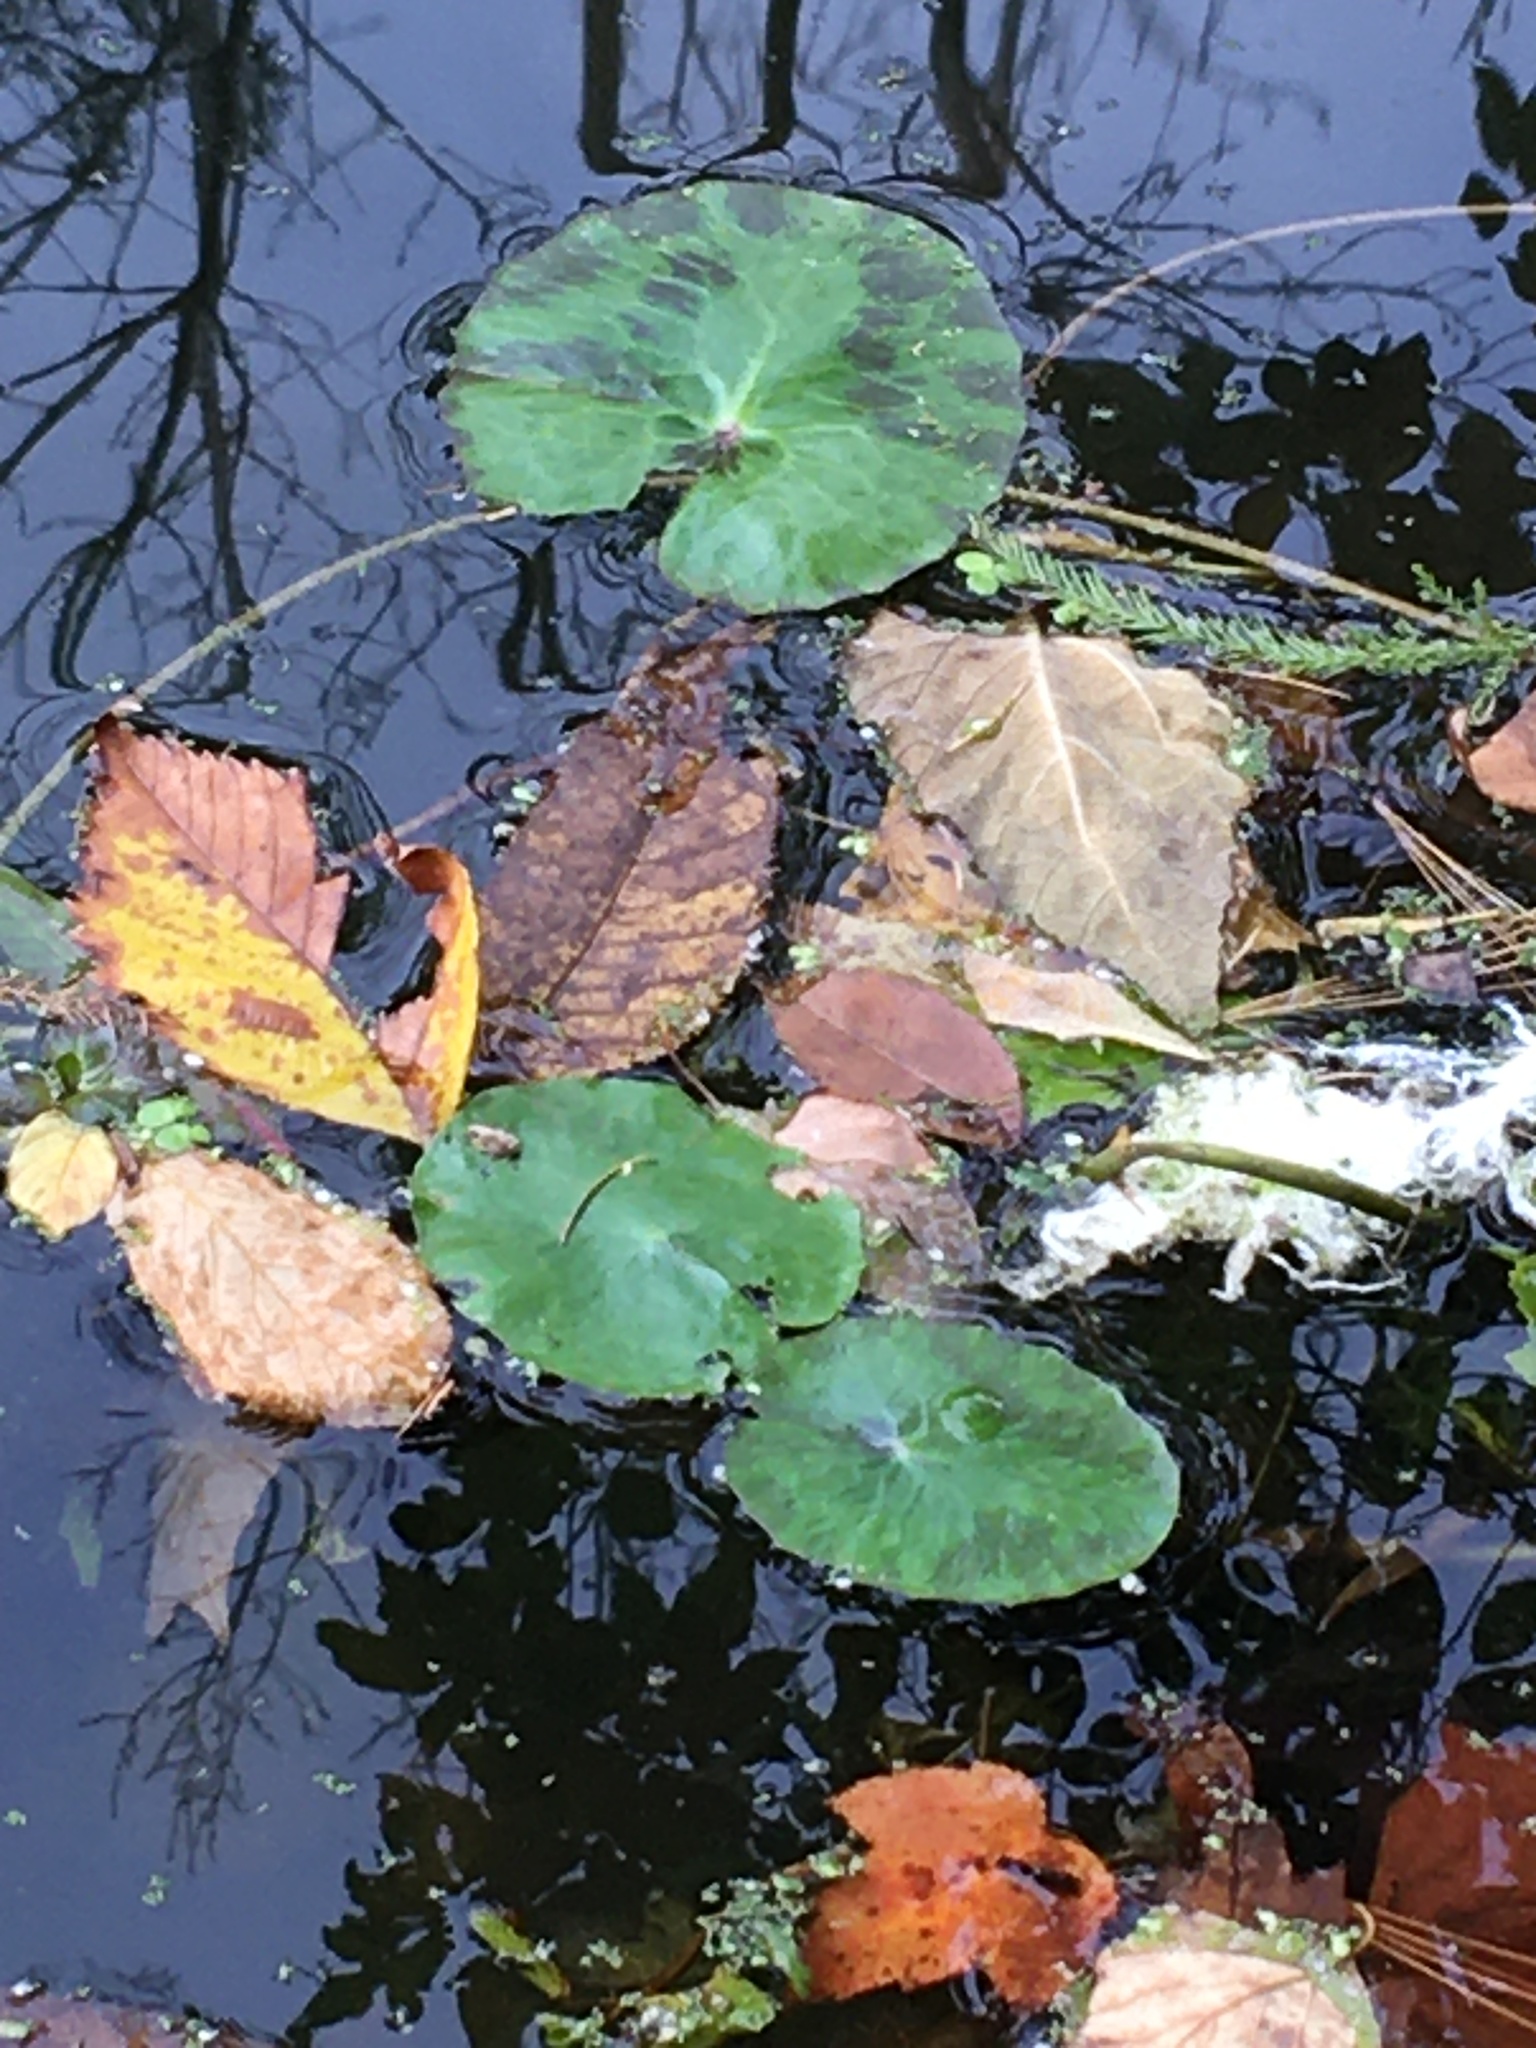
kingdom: Plantae
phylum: Tracheophyta
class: Magnoliopsida
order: Asterales
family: Menyanthaceae
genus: Nymphoides
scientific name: Nymphoides peltata
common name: Fringed water-lily
